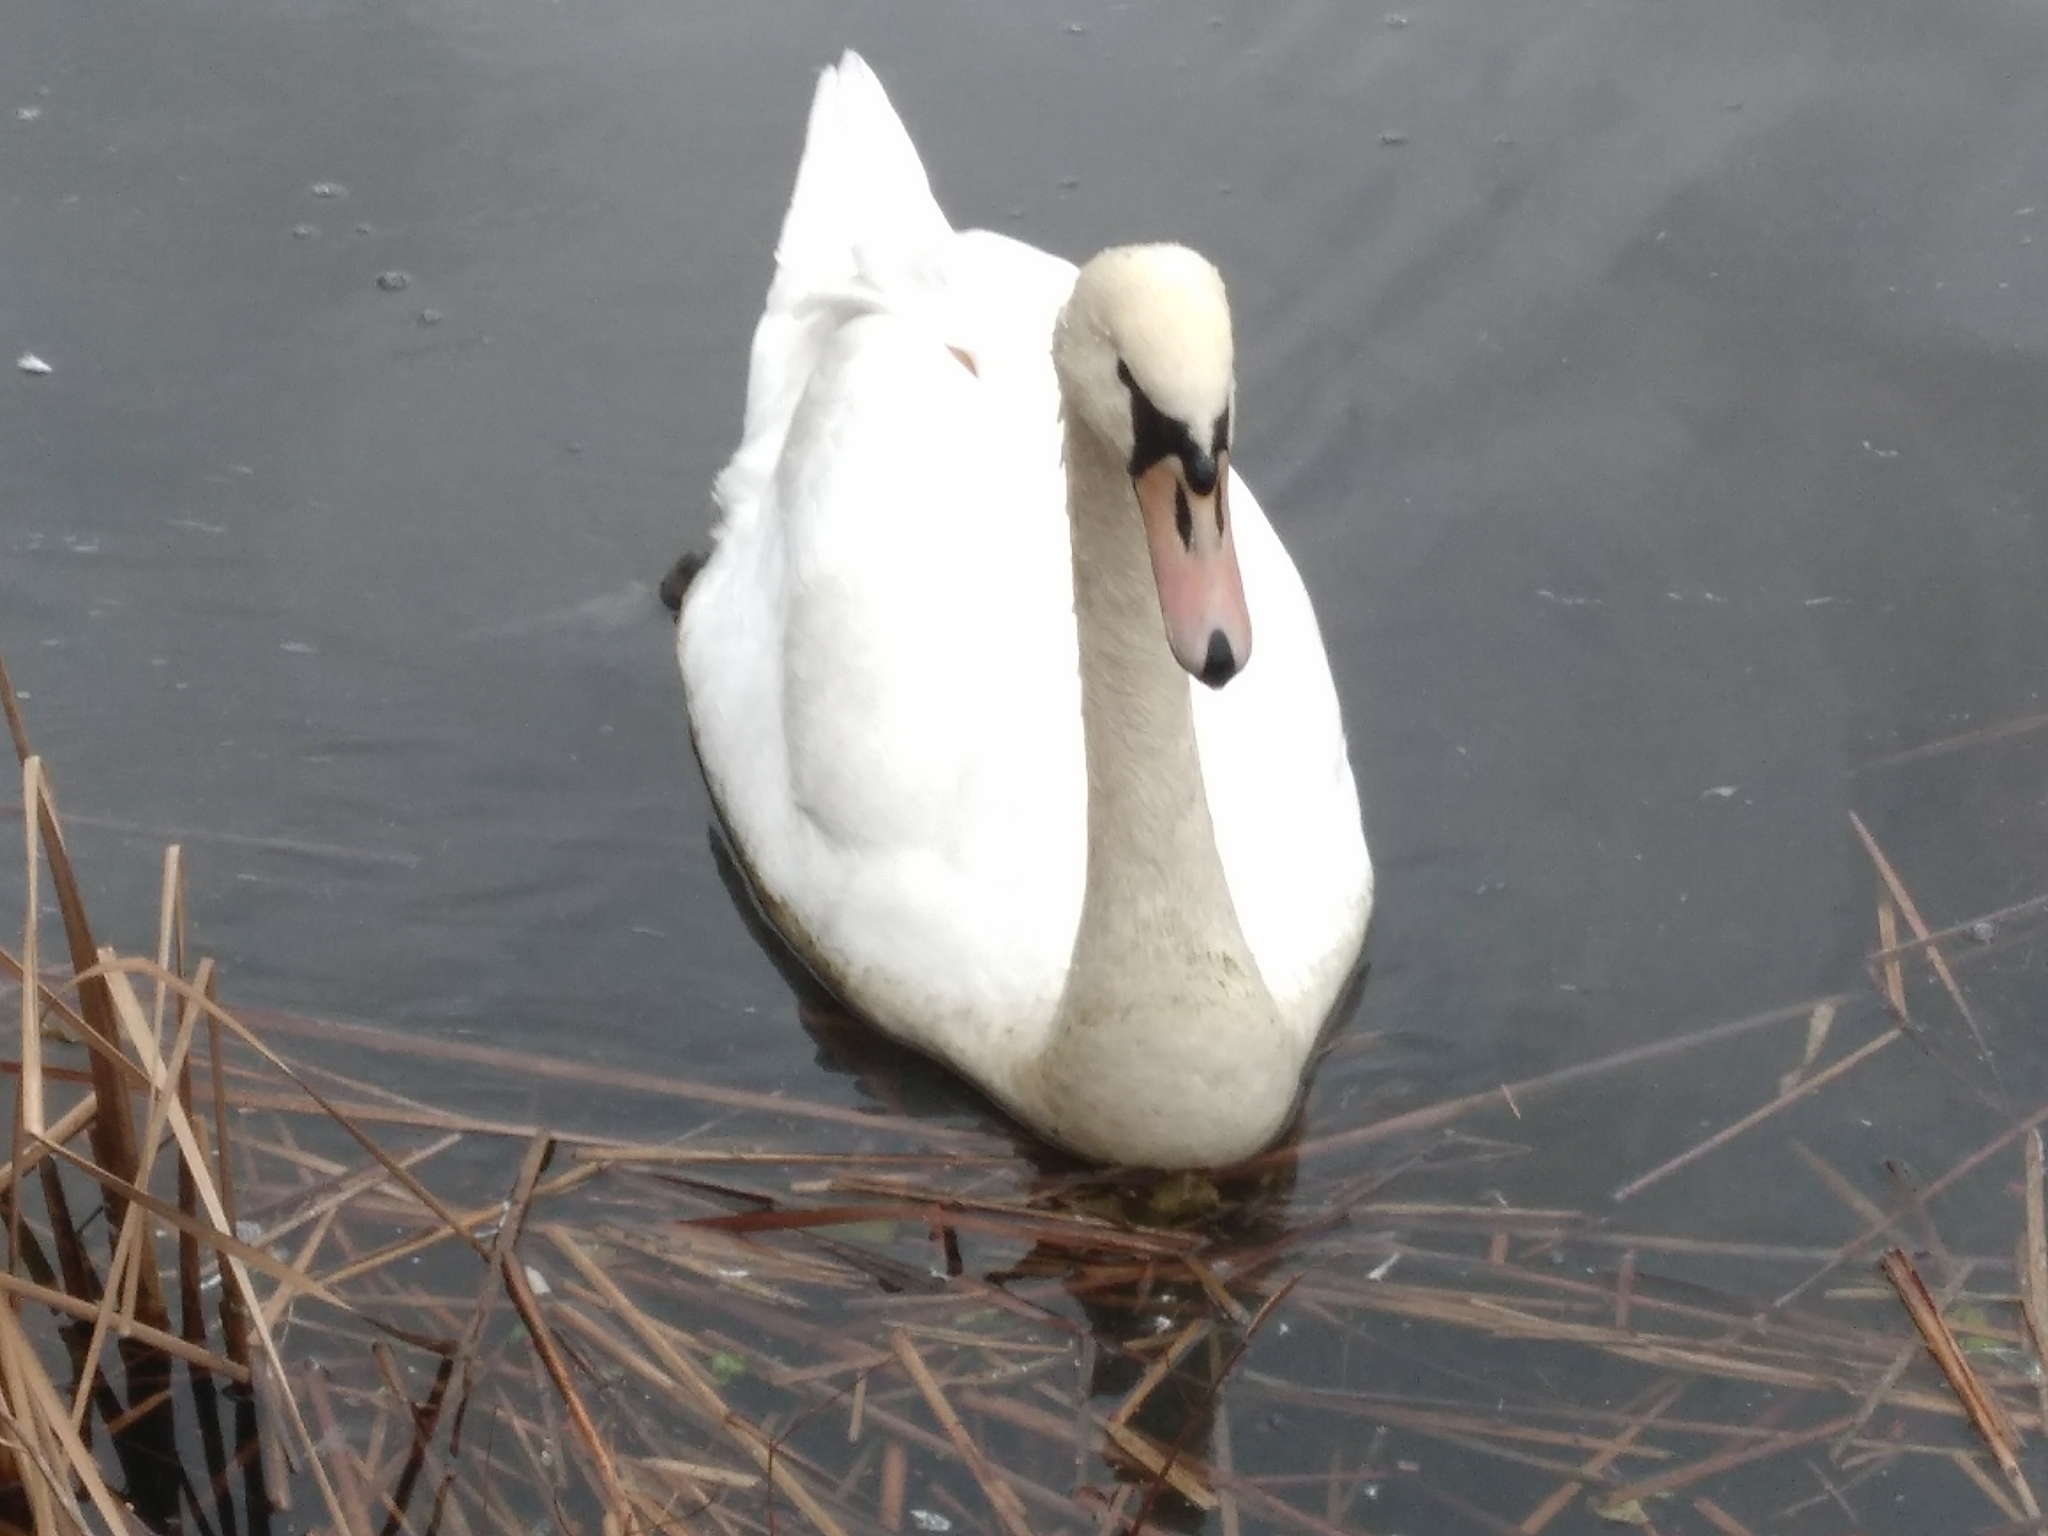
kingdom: Animalia
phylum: Chordata
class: Aves
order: Anseriformes
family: Anatidae
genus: Cygnus
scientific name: Cygnus olor
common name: Mute swan
